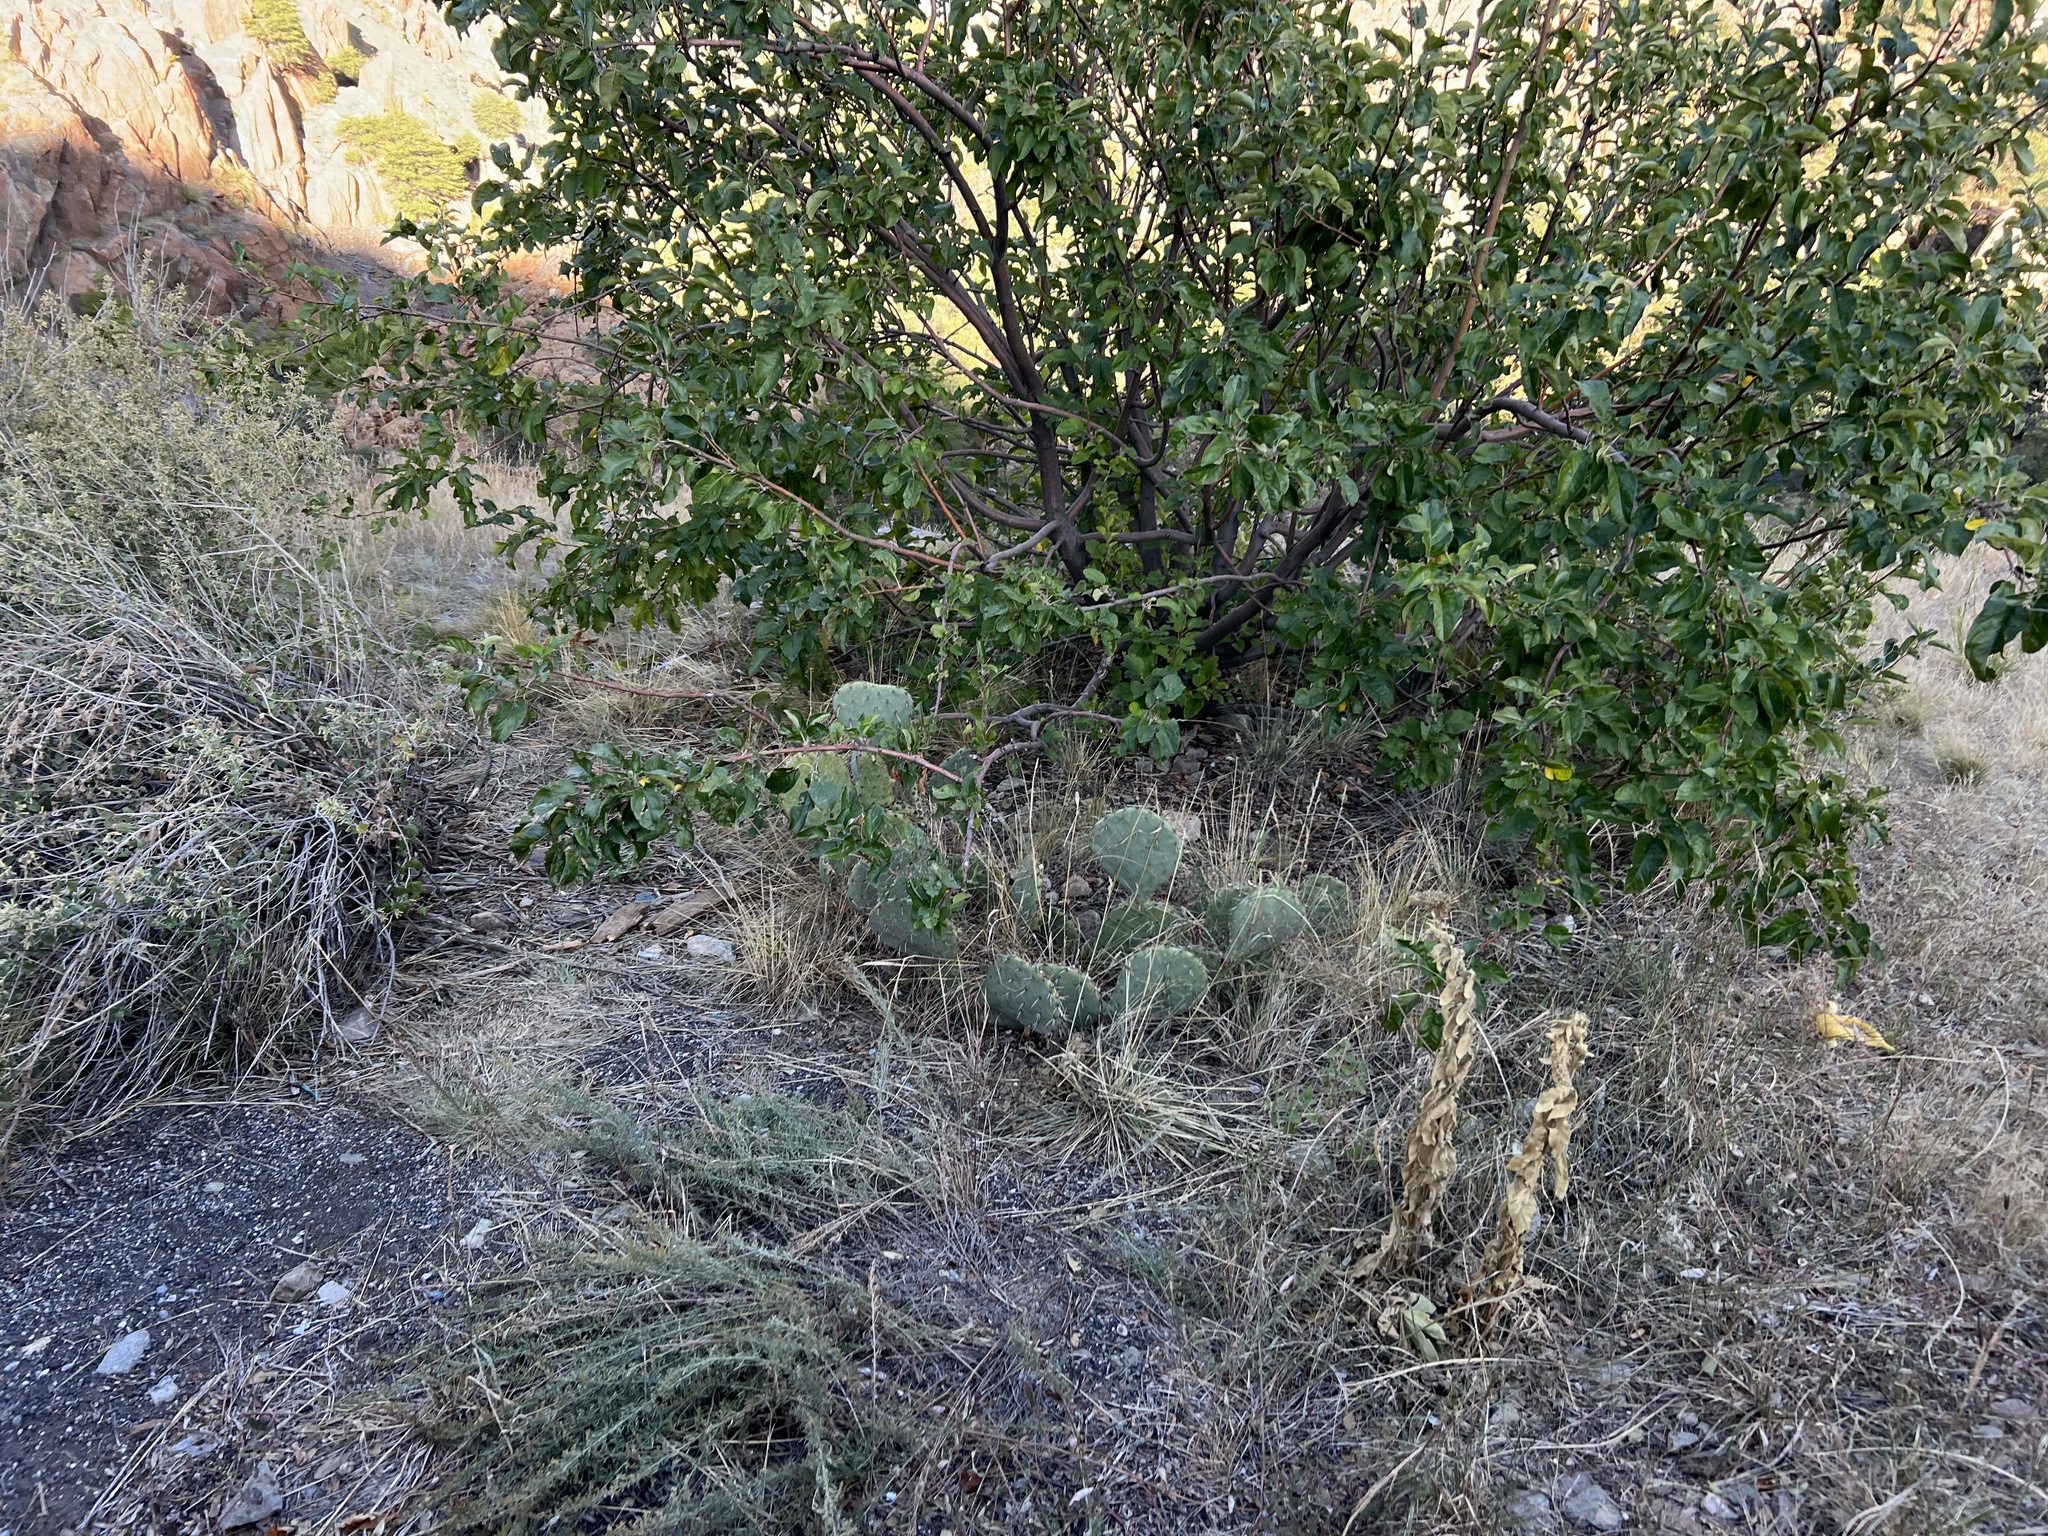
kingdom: Plantae
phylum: Tracheophyta
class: Magnoliopsida
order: Caryophyllales
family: Cactaceae
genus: Opuntia
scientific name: Opuntia engelmannii
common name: Cactus-apple
